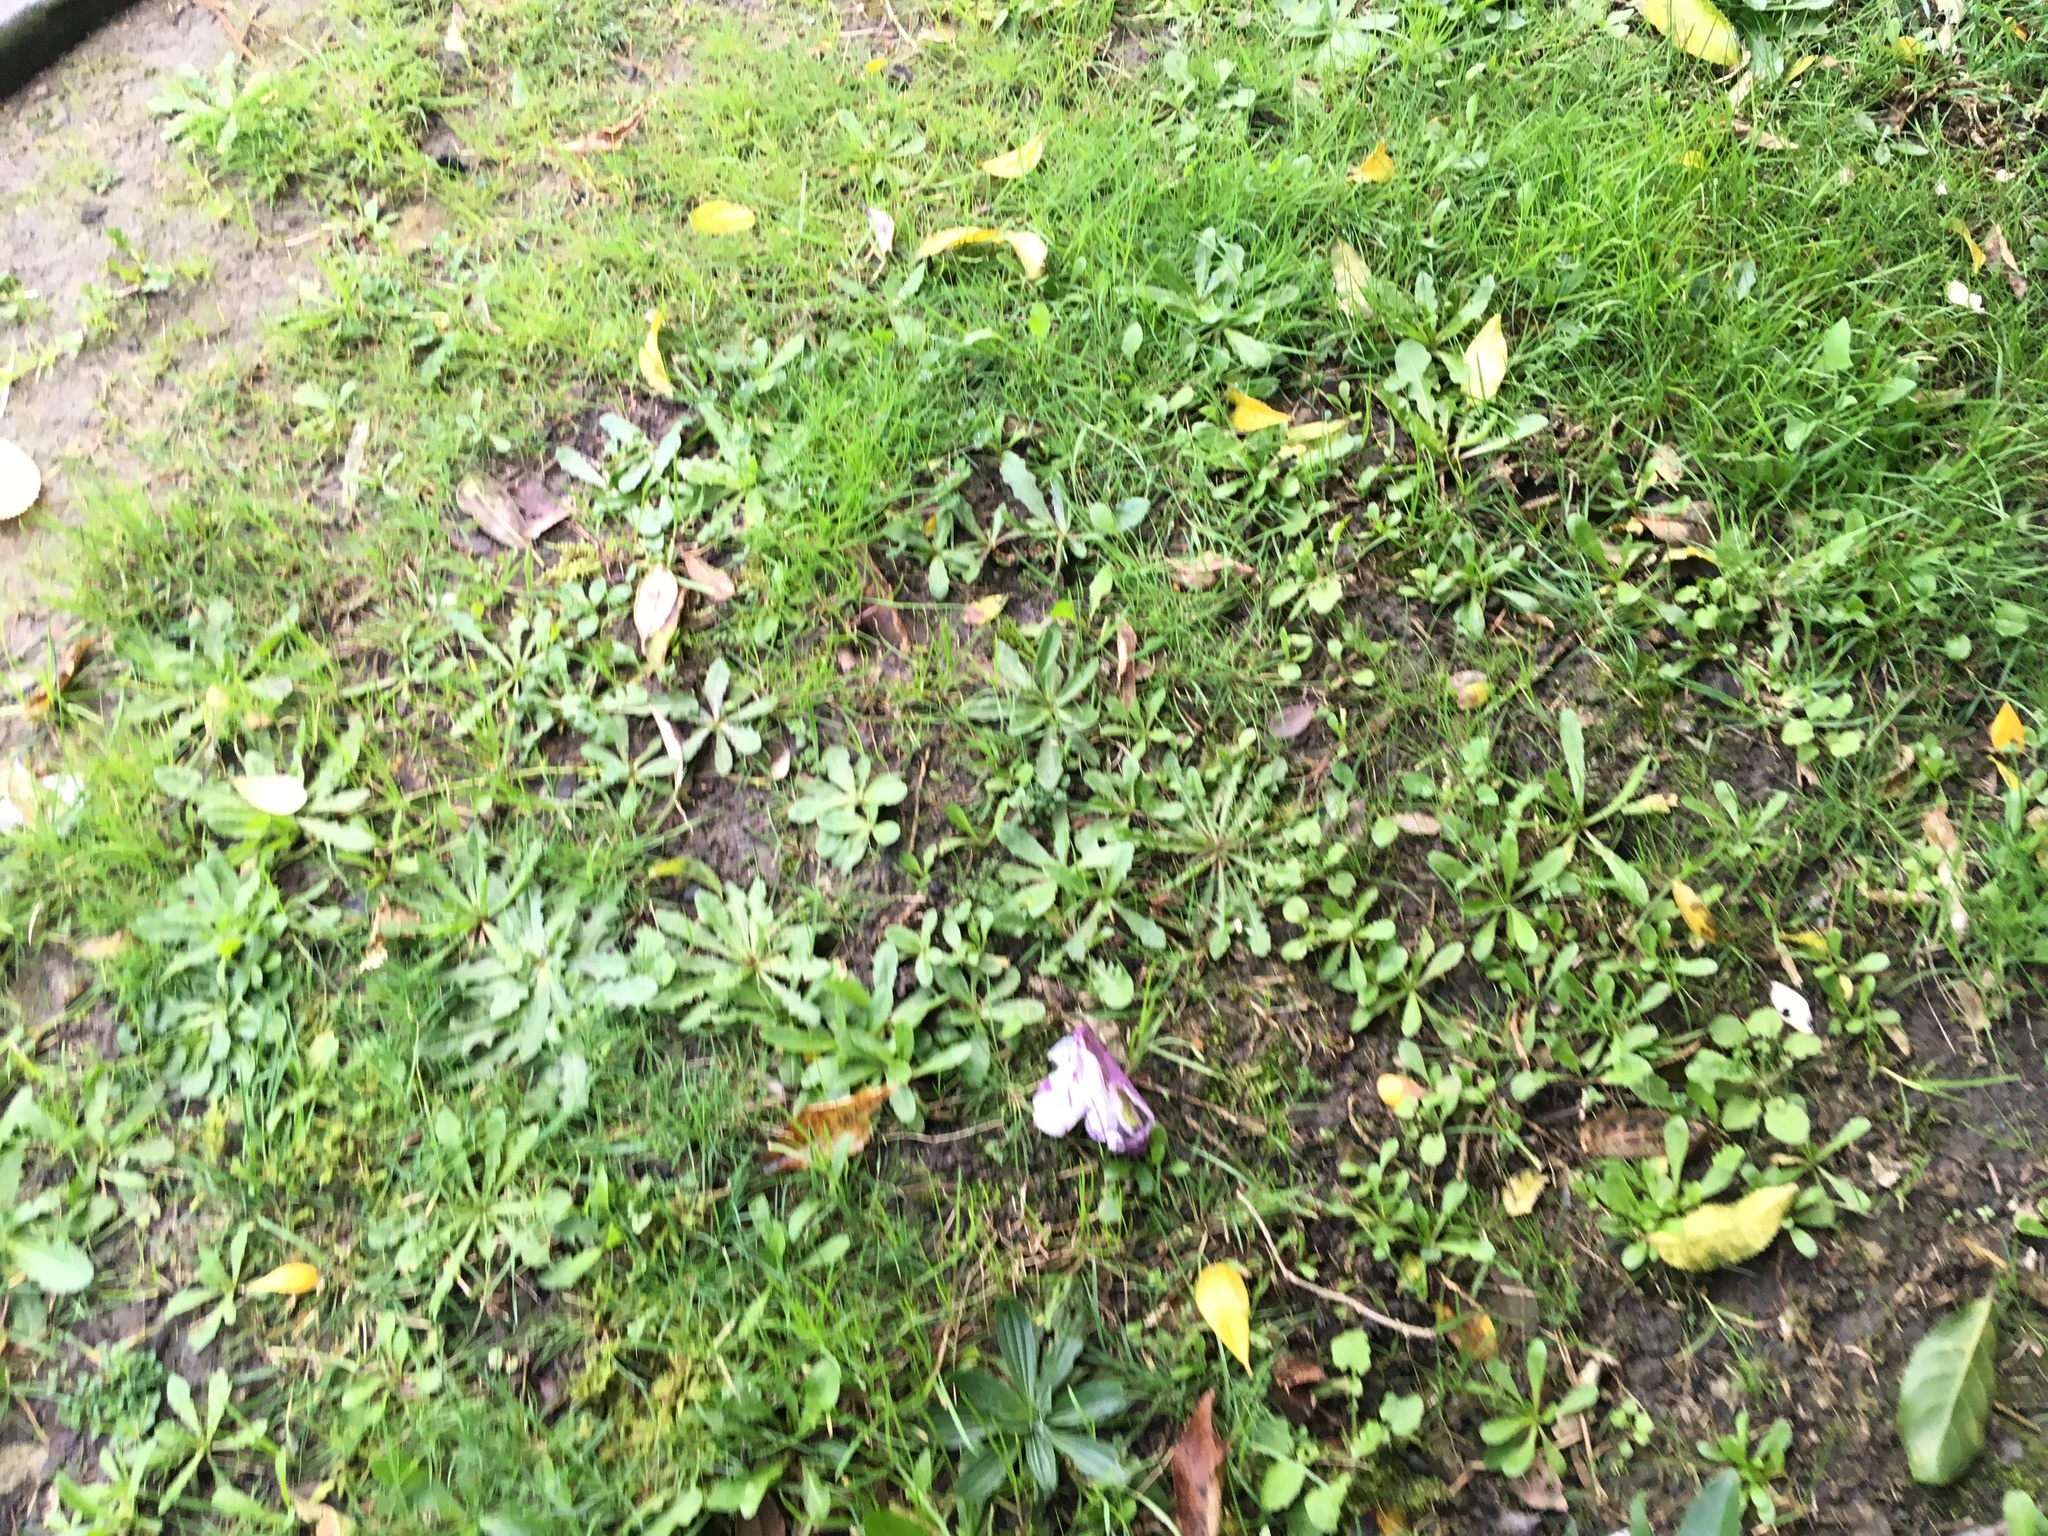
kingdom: Plantae
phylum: Tracheophyta
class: Magnoliopsida
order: Lamiales
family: Plantaginaceae
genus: Plantago
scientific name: Plantago lanceolata
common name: Ribwort plantain
